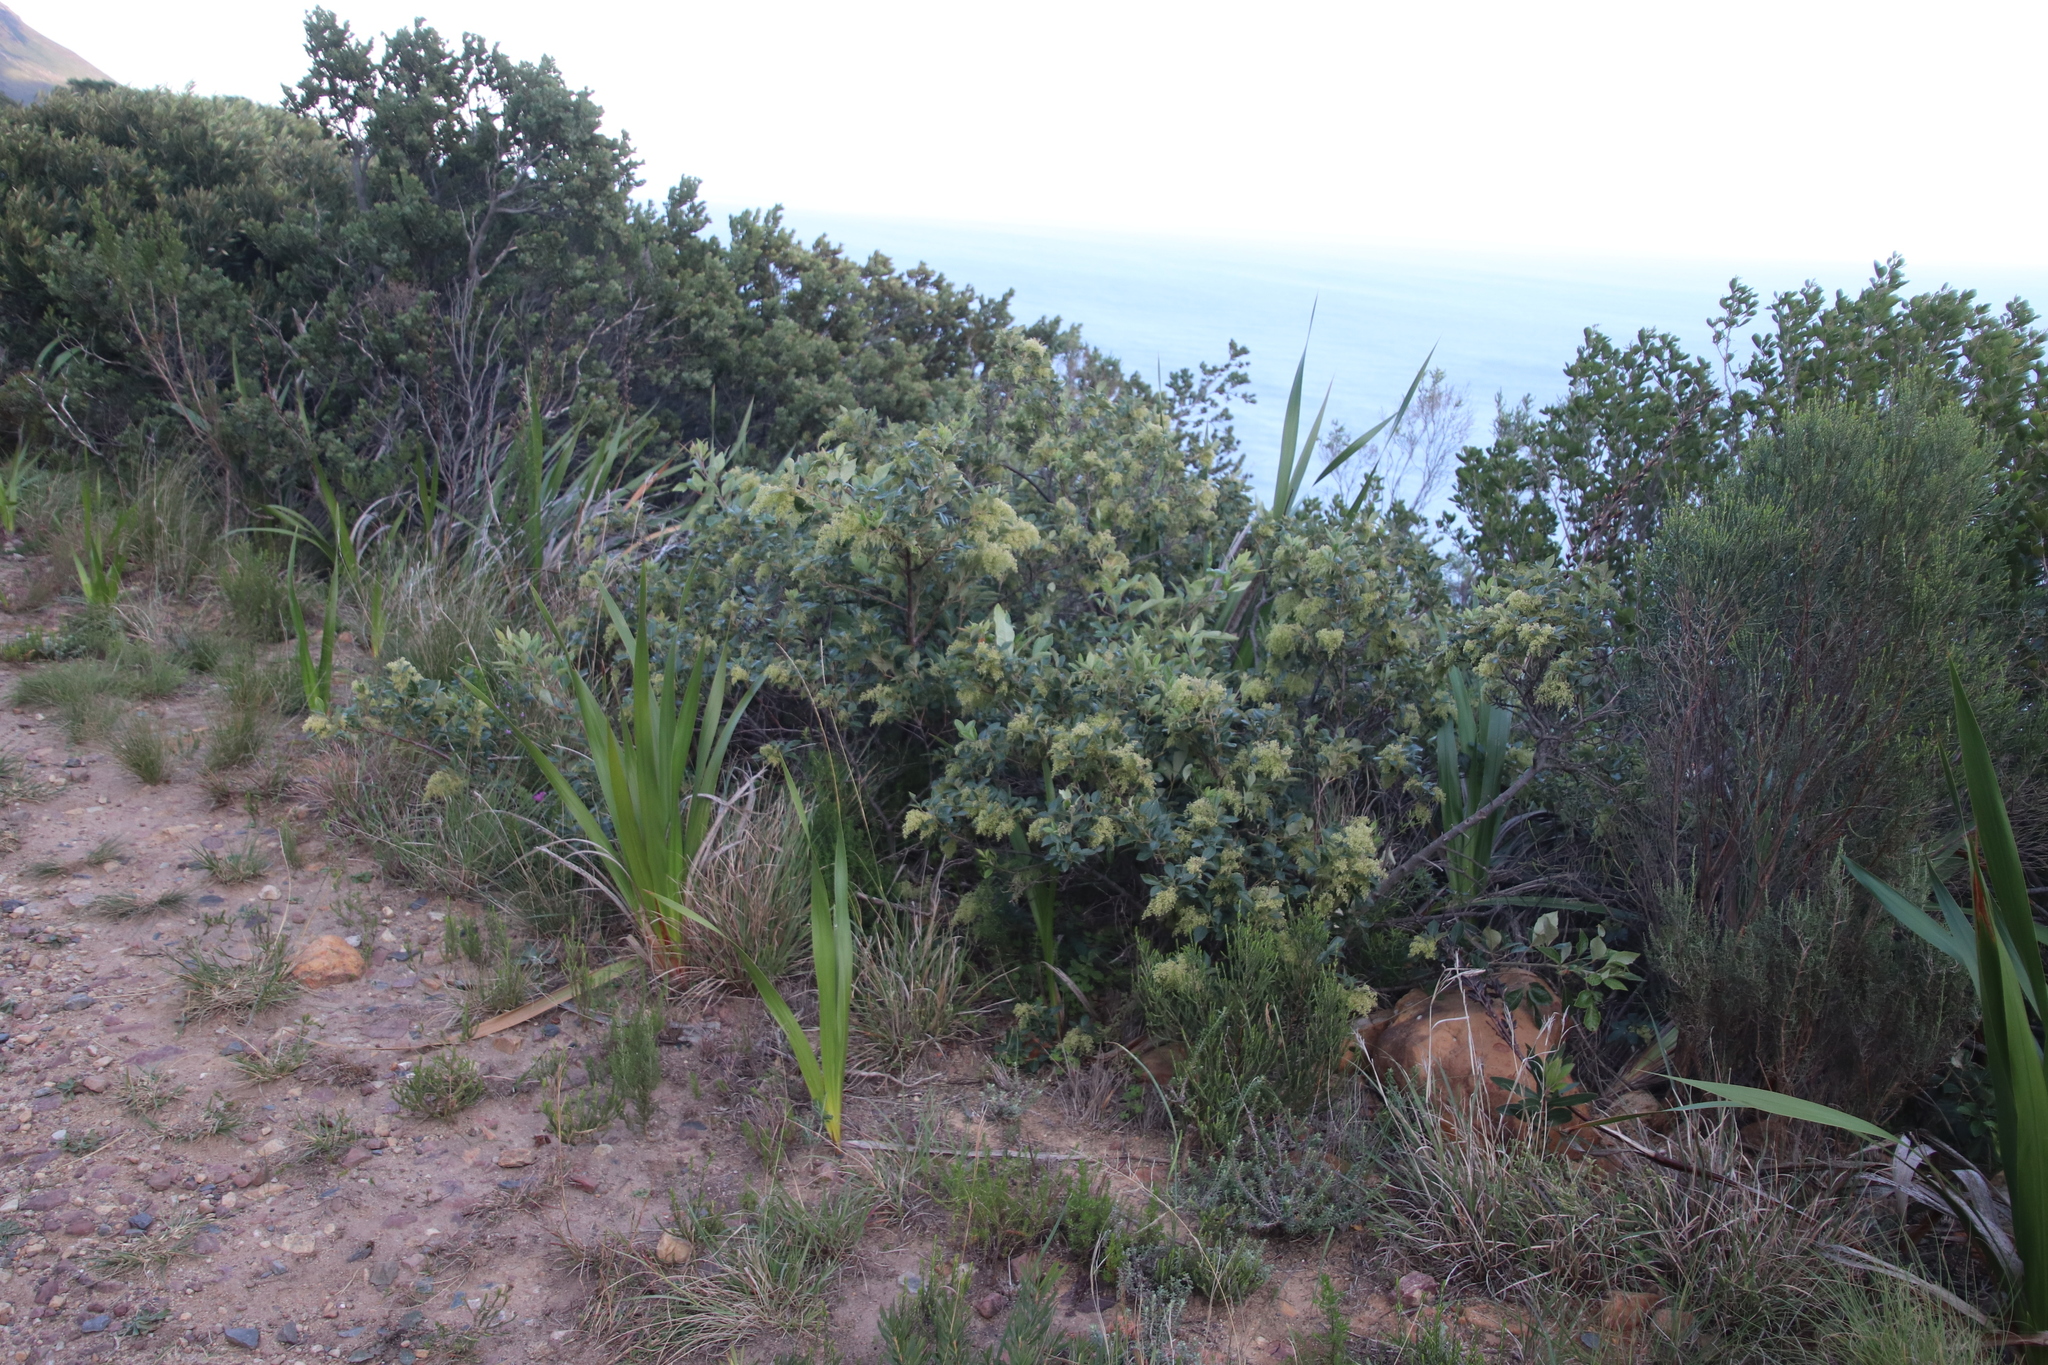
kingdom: Plantae
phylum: Tracheophyta
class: Magnoliopsida
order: Sapindales
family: Anacardiaceae
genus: Searsia
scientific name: Searsia tomentosa
